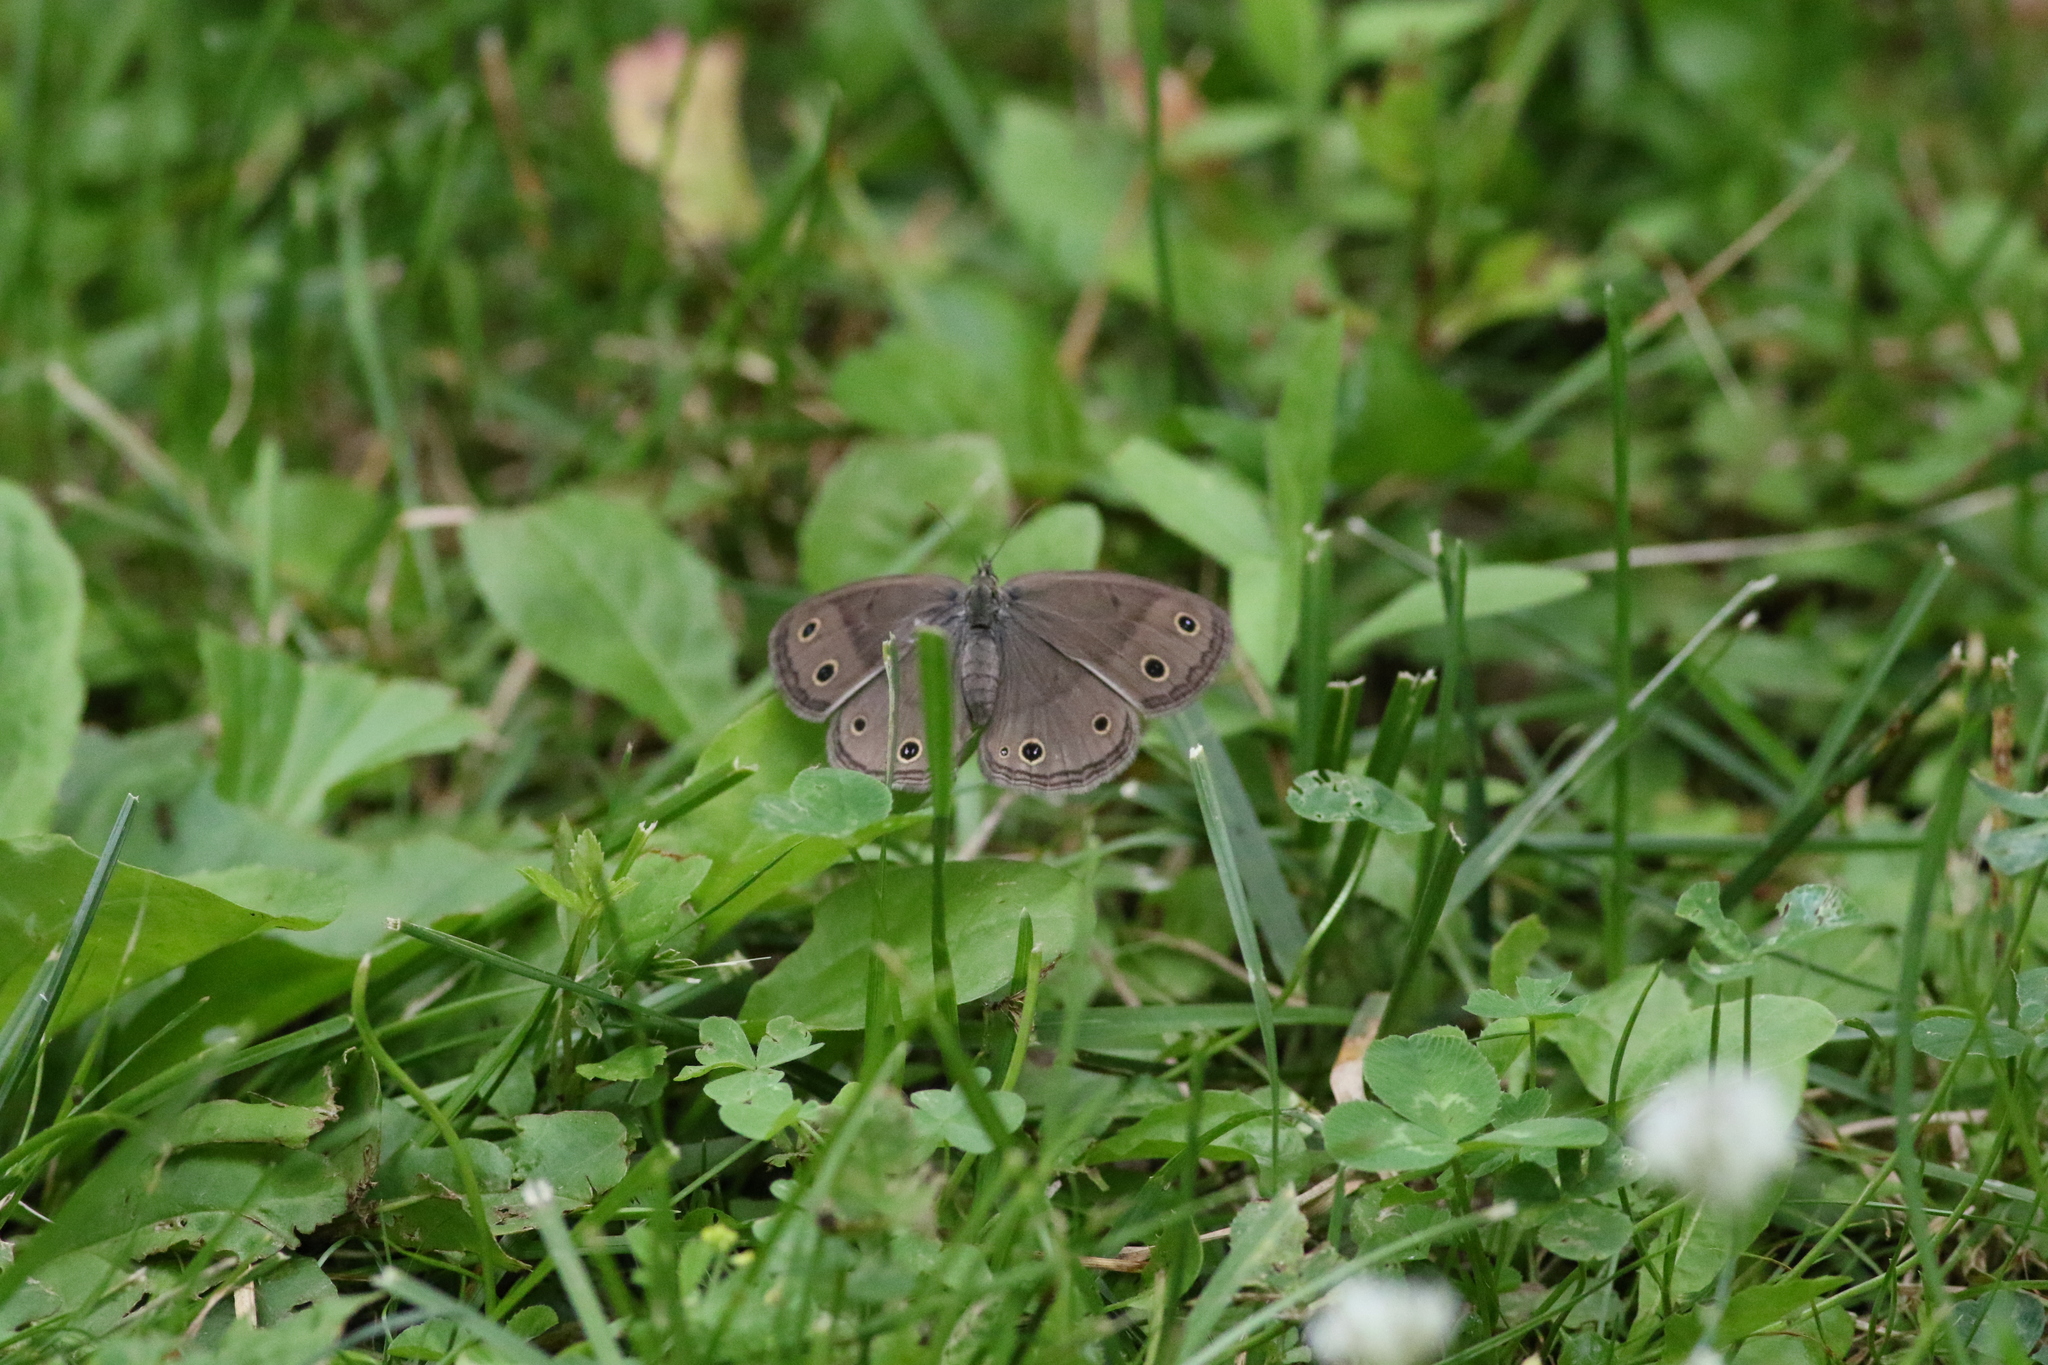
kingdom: Animalia
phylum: Arthropoda
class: Insecta
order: Lepidoptera
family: Nymphalidae
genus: Euptychia
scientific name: Euptychia cymela
